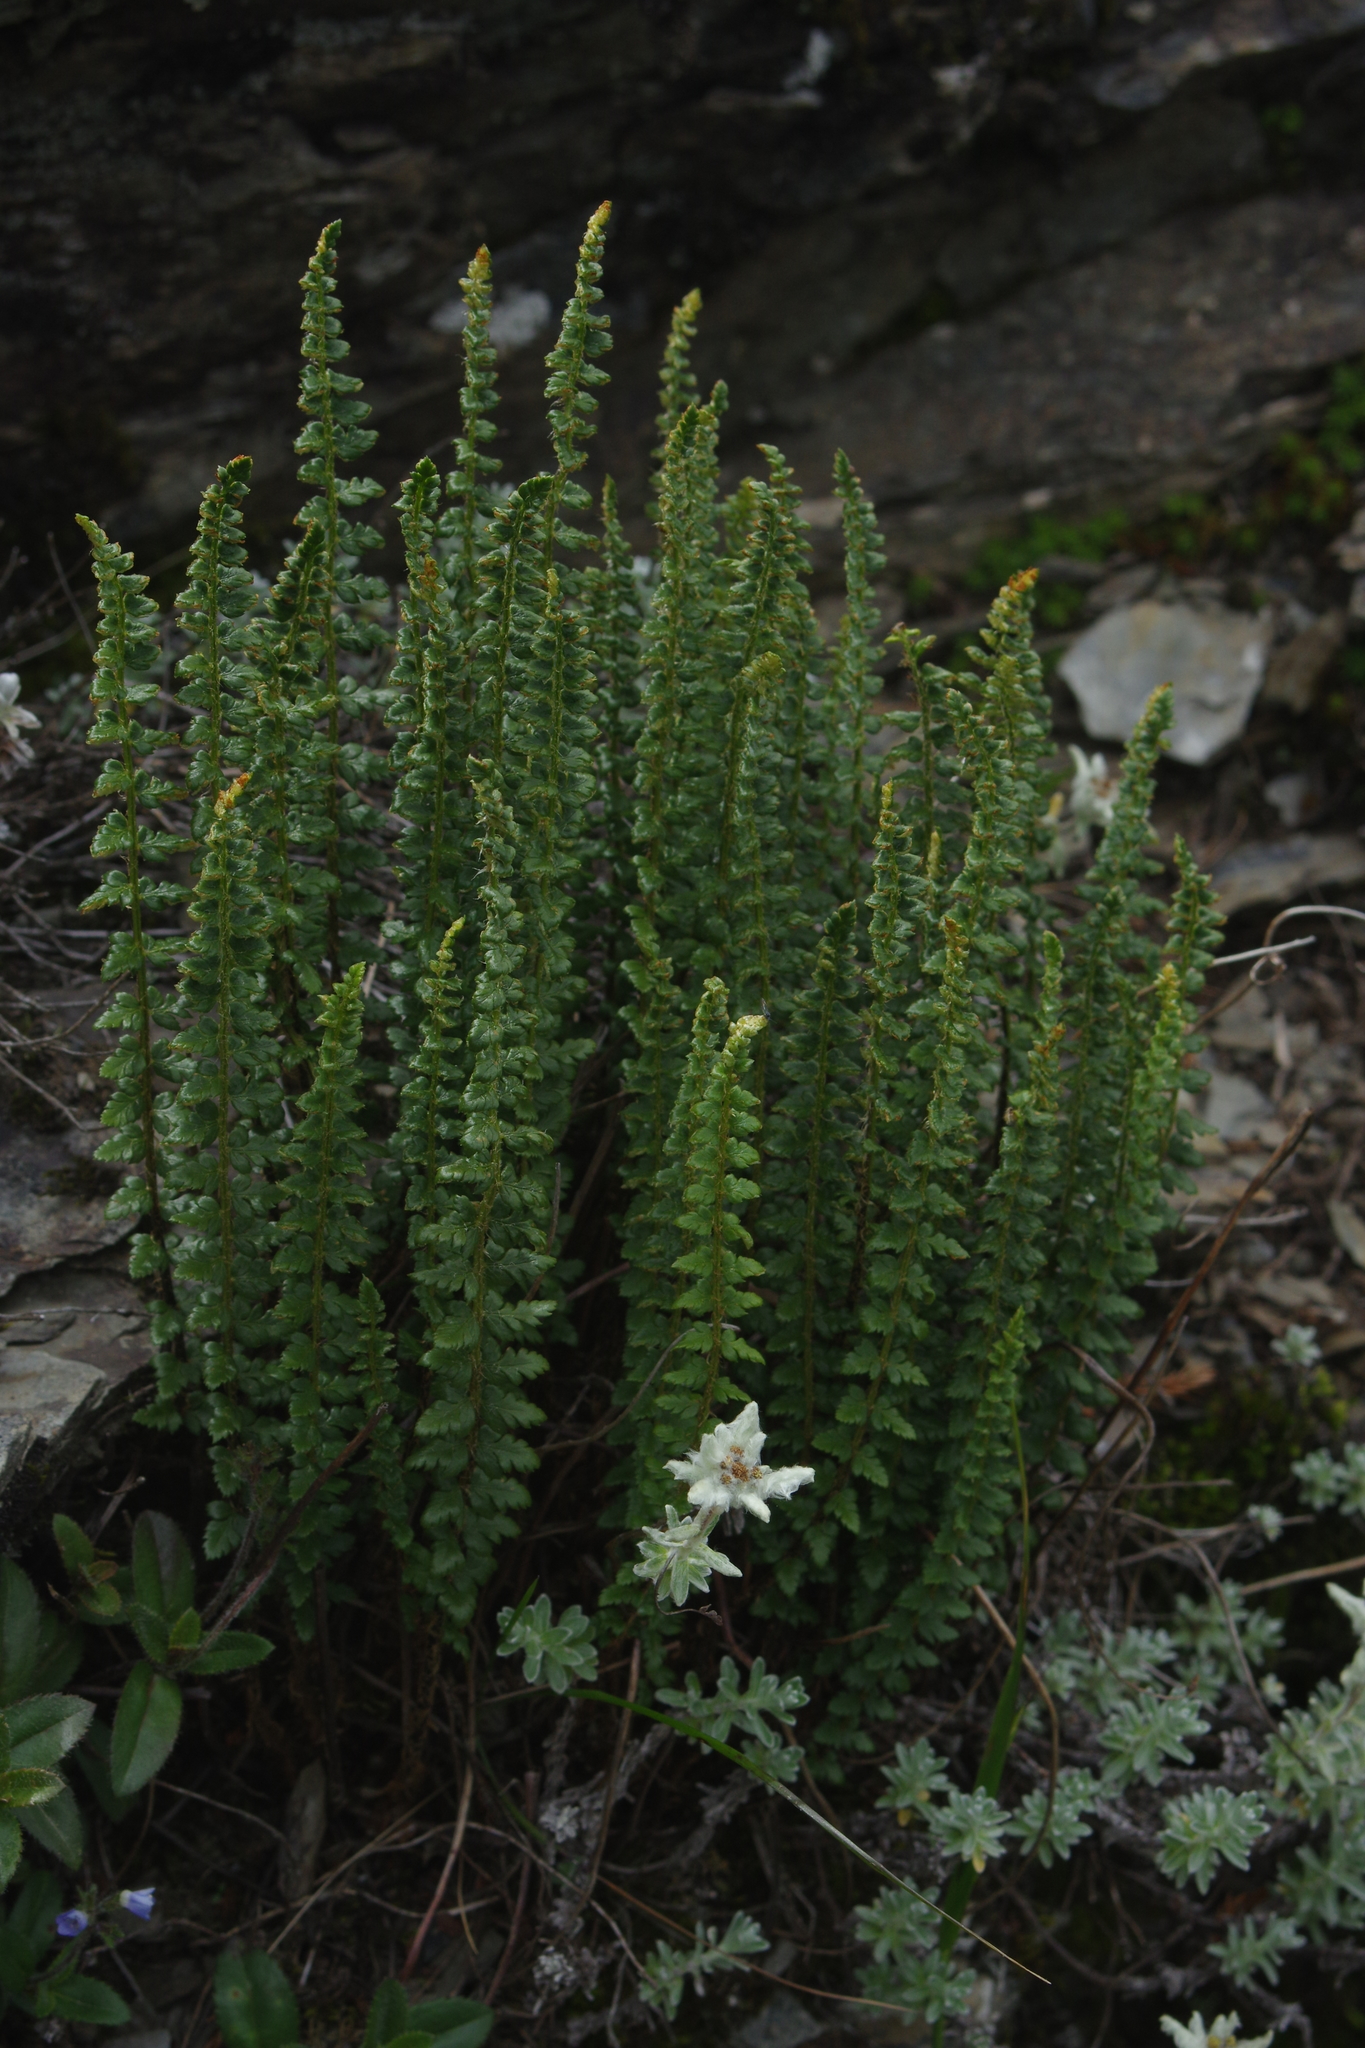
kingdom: Plantae
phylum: Tracheophyta
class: Polypodiopsida
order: Polypodiales
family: Dryopteridaceae
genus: Polystichum
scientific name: Polystichum lachenense
